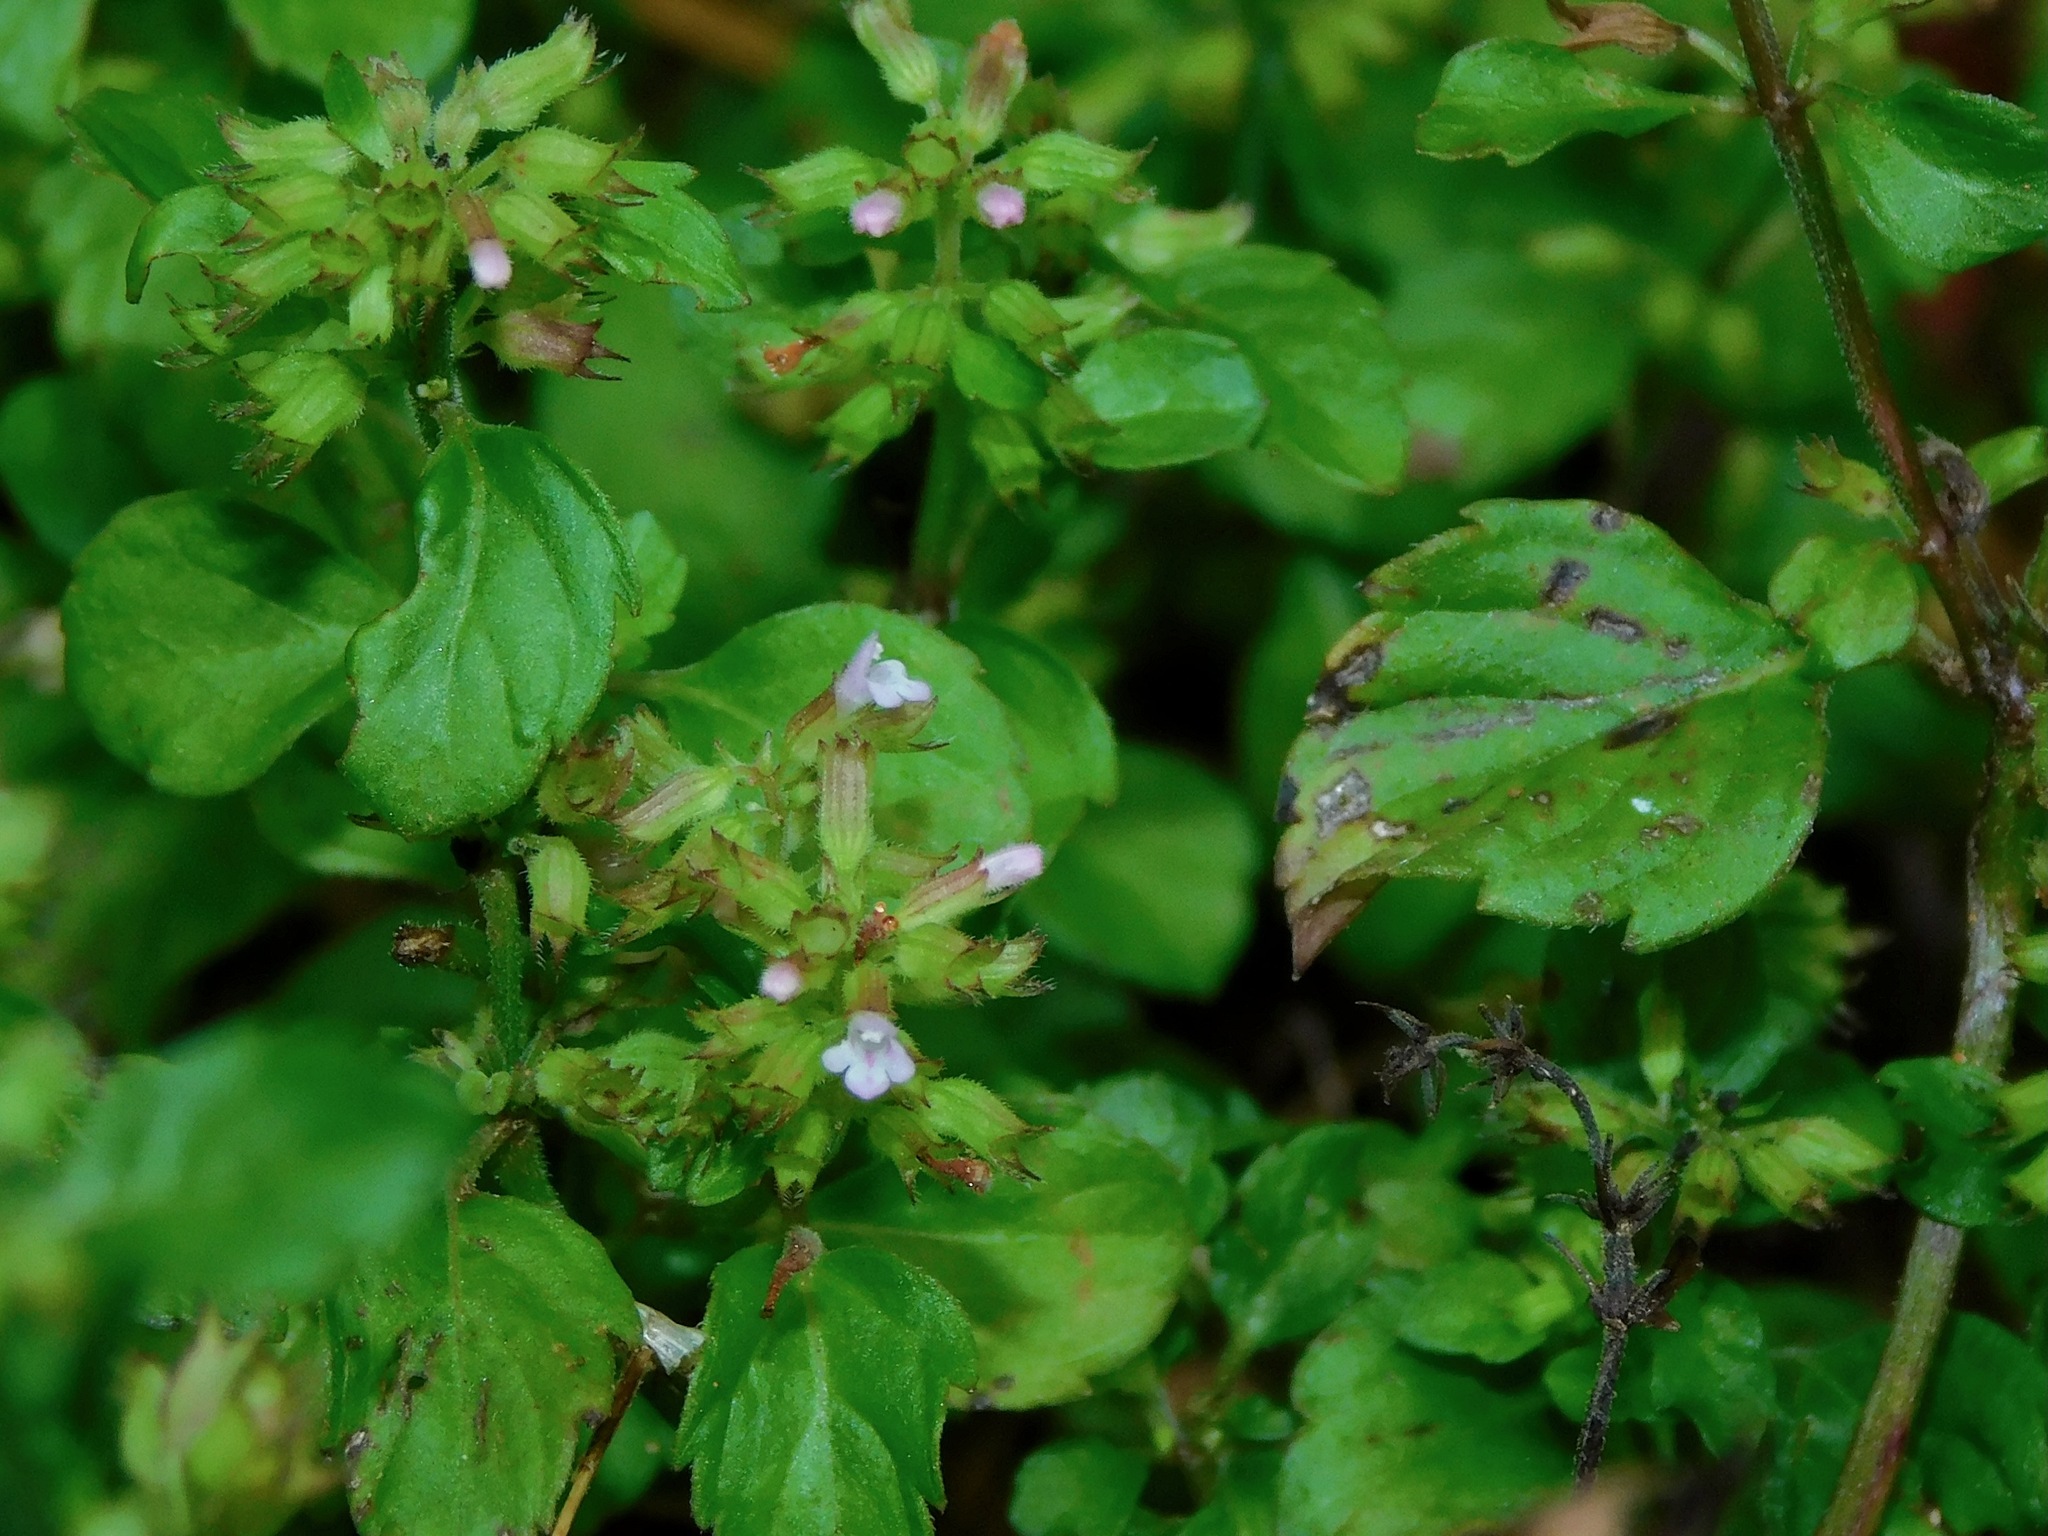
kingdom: Plantae
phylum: Tracheophyta
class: Magnoliopsida
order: Lamiales
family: Lamiaceae
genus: Clinopodium
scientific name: Clinopodium gracile
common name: Slender wild basil
